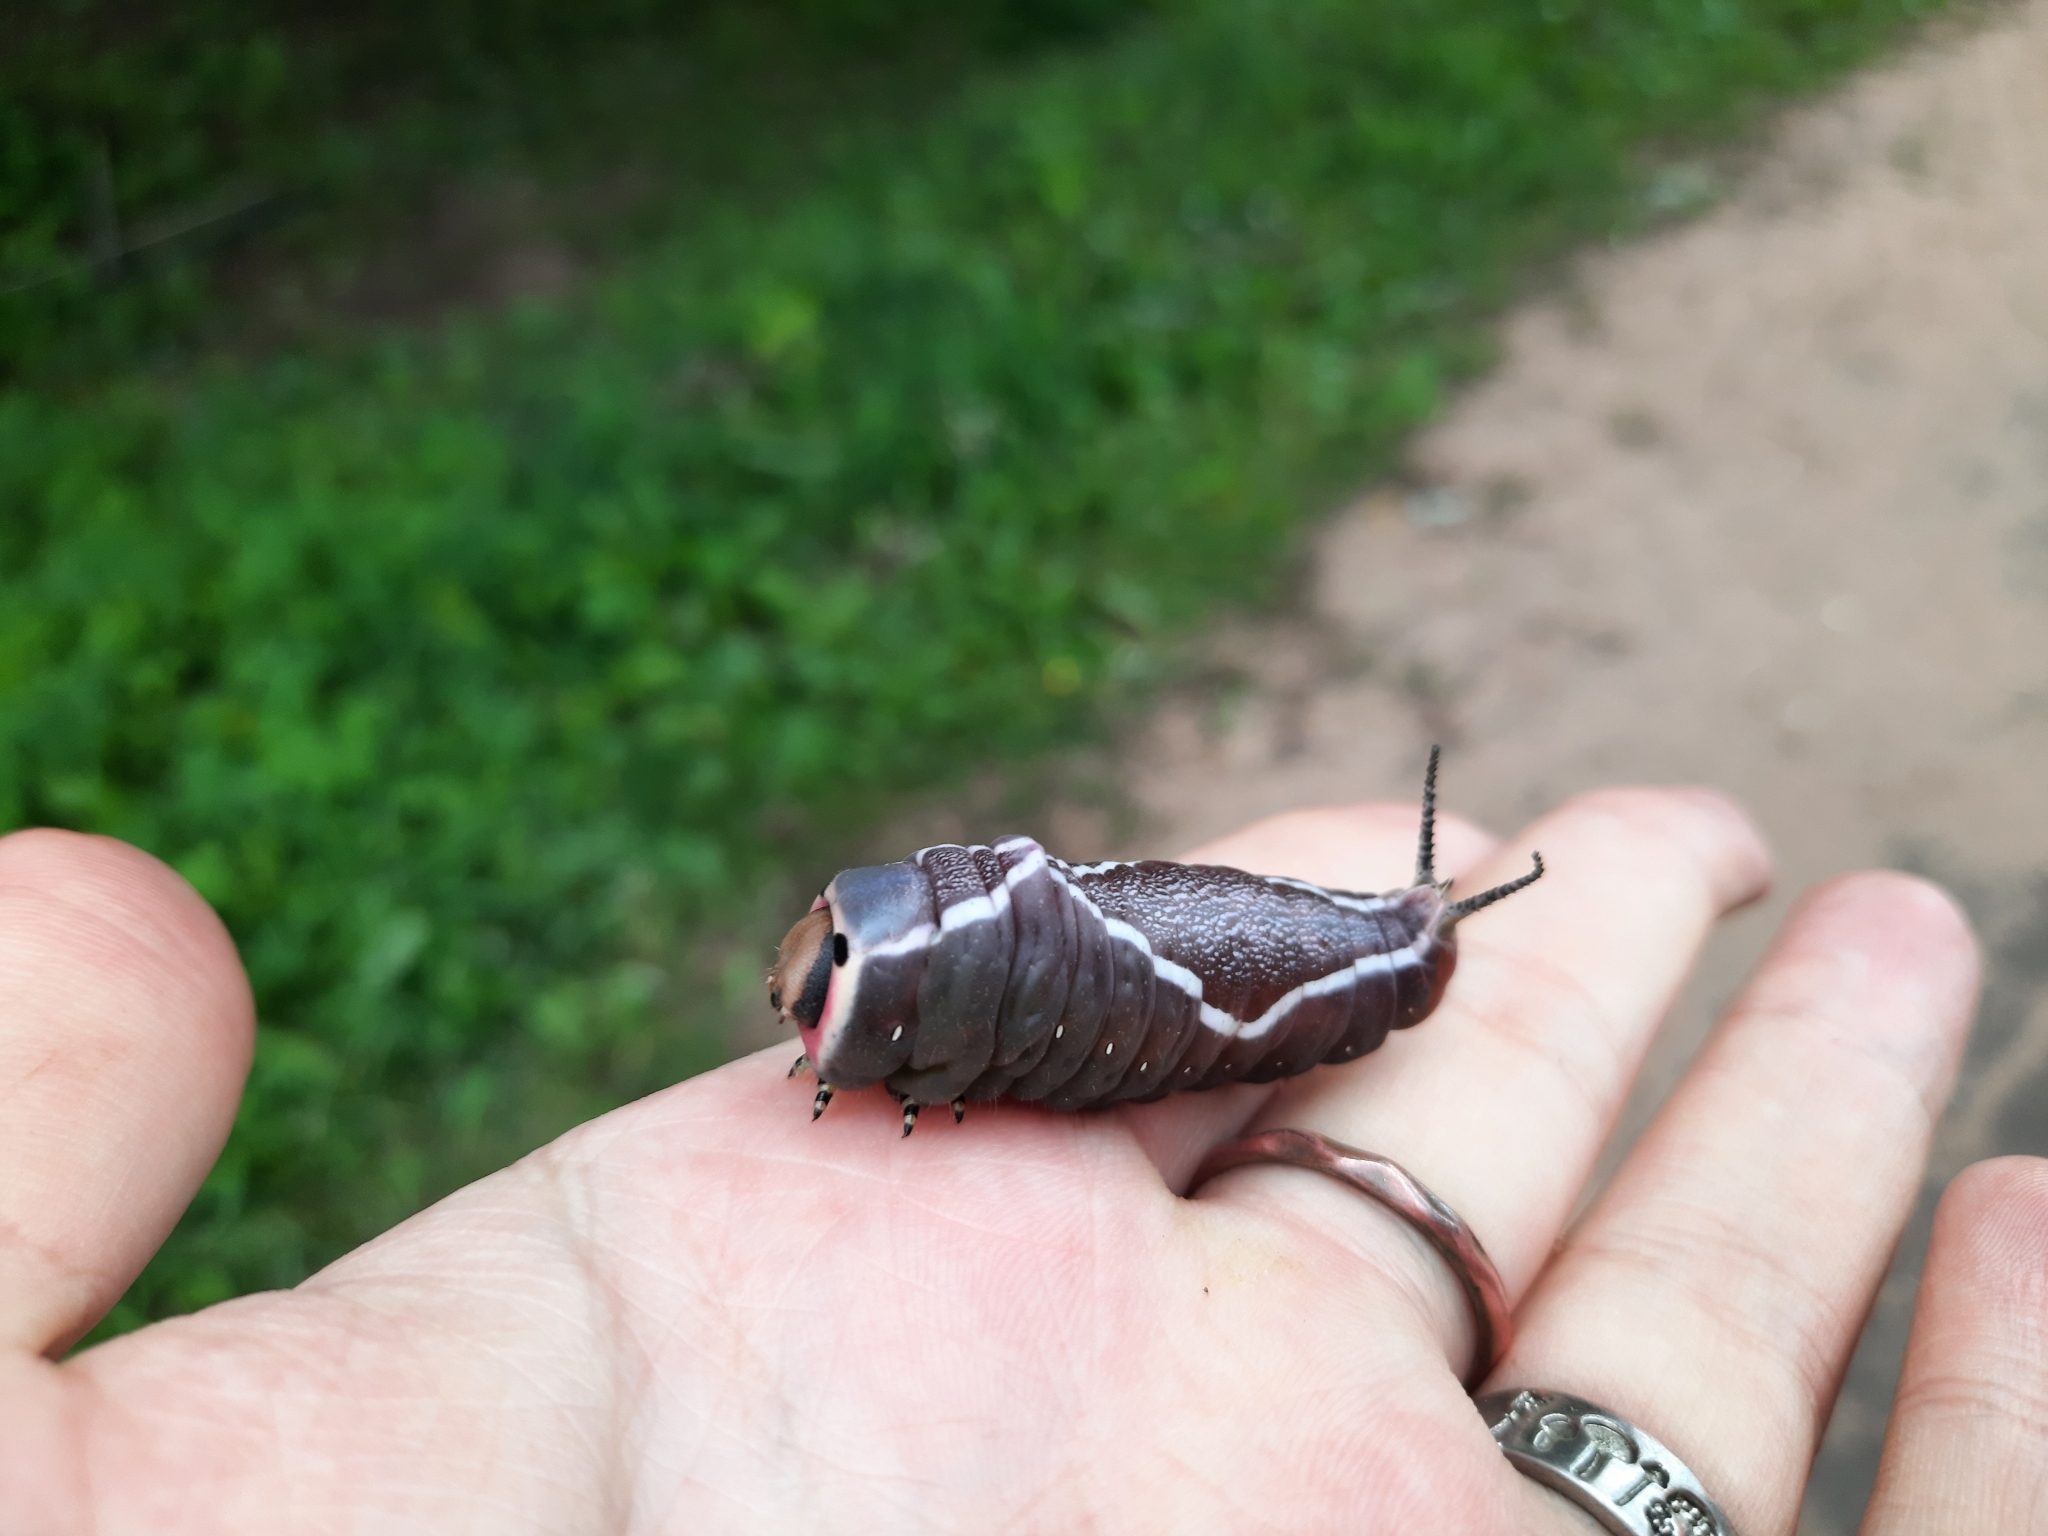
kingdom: Animalia
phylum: Arthropoda
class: Insecta
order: Lepidoptera
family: Notodontidae
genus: Cerura
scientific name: Cerura vinula
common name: Puss moth
